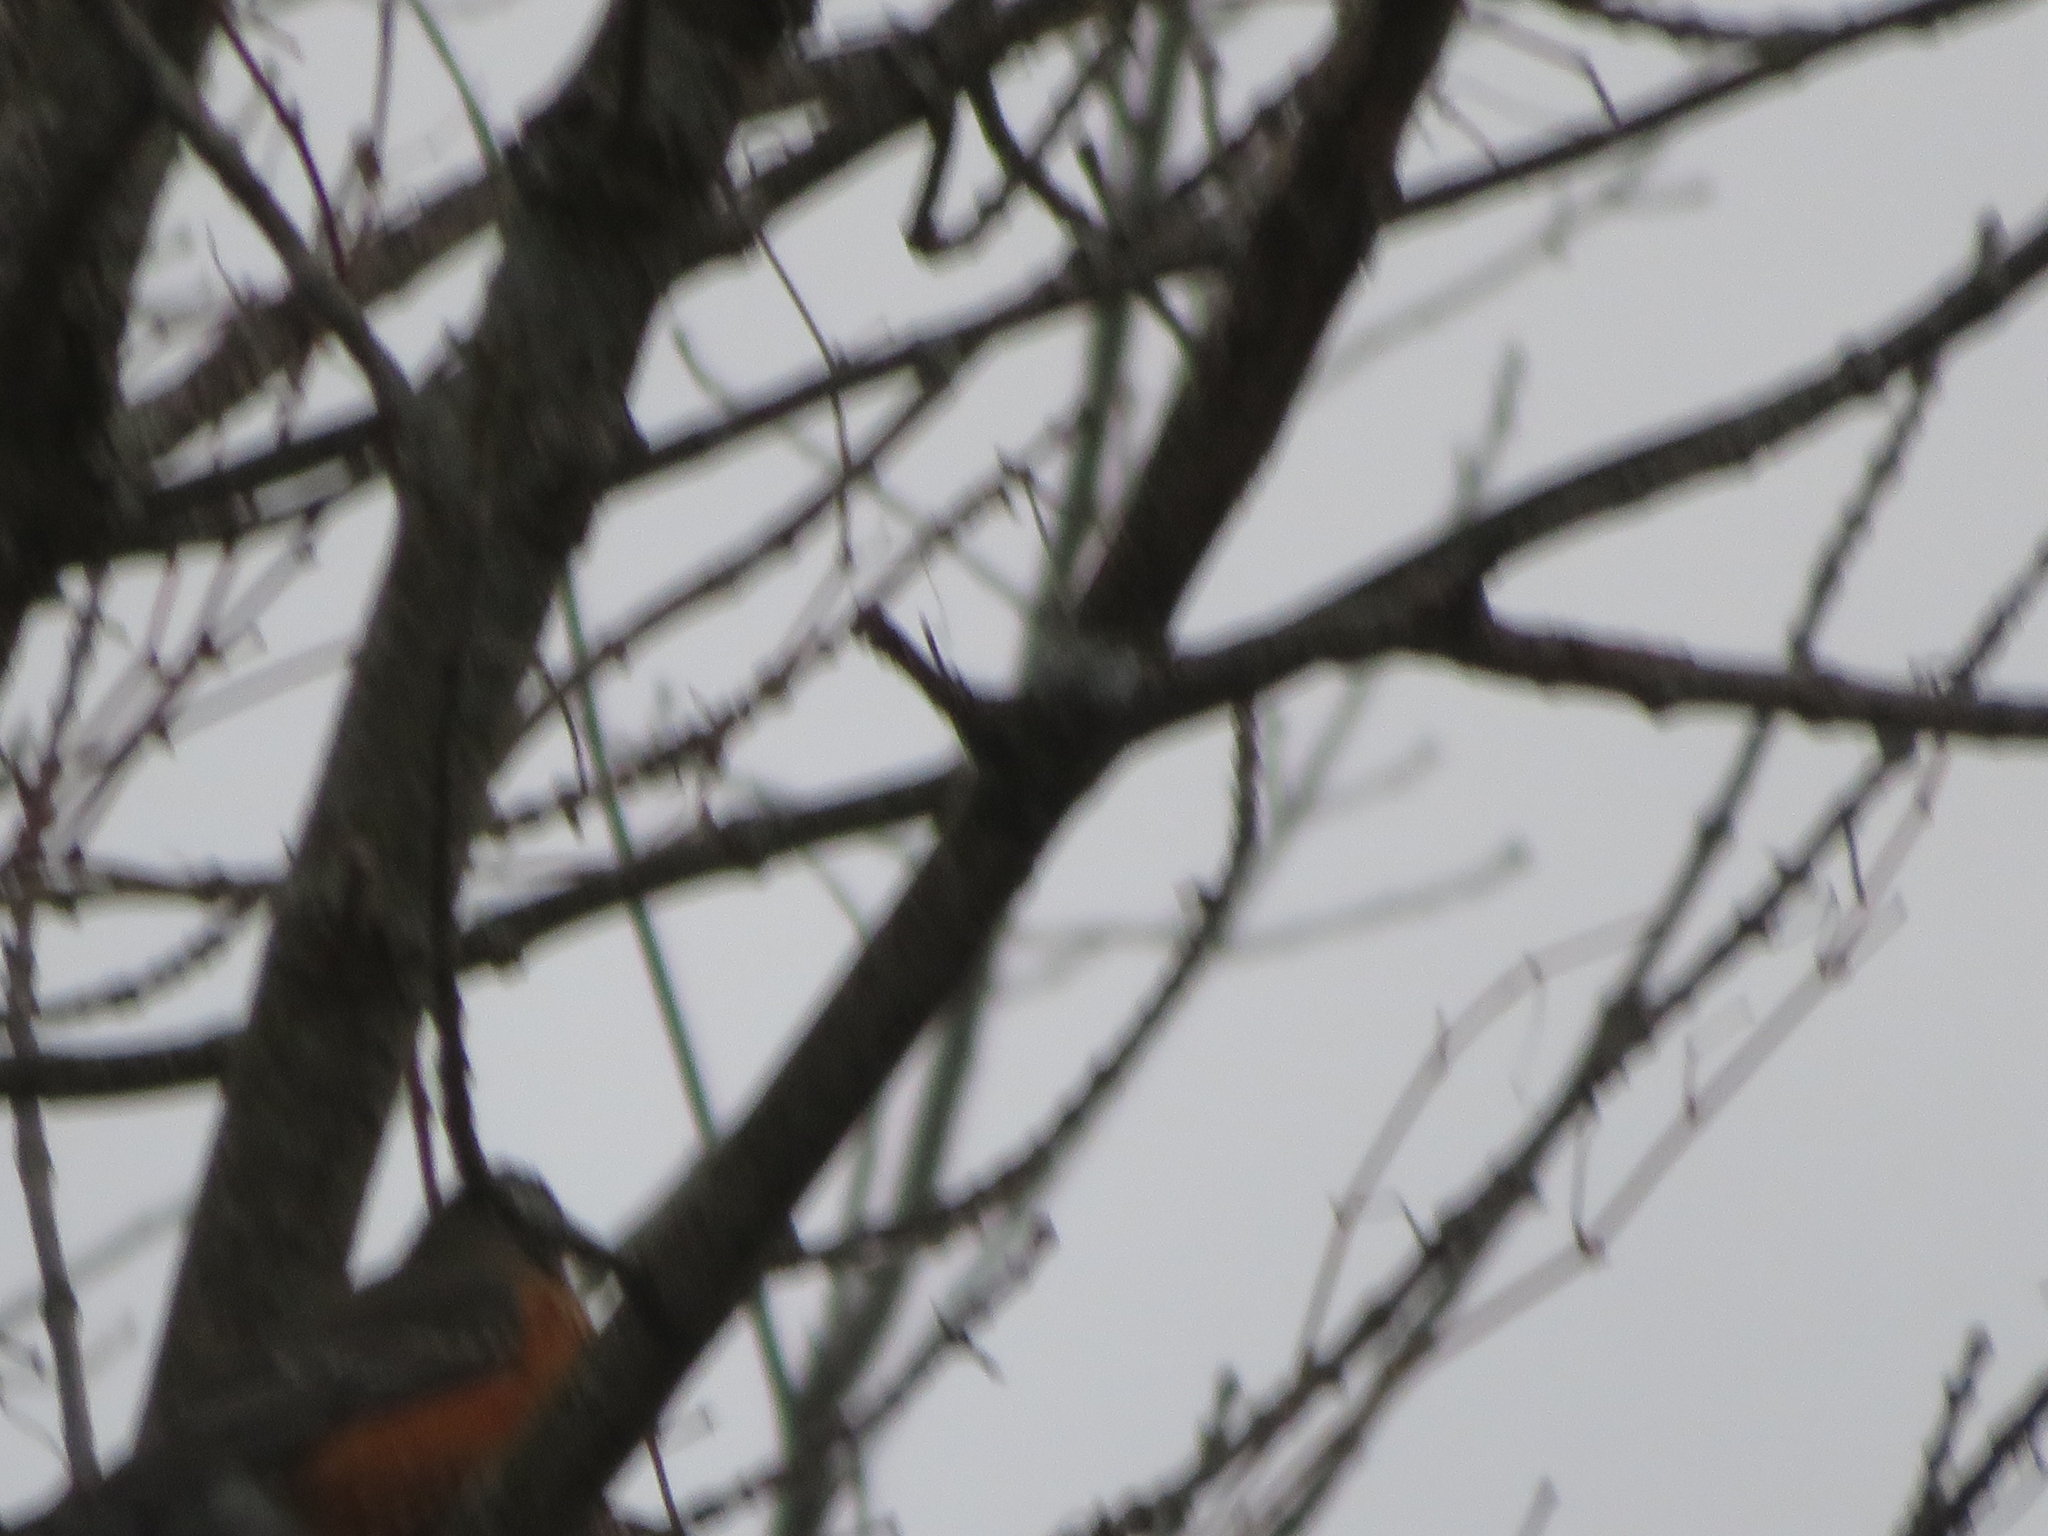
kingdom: Animalia
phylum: Chordata
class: Aves
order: Passeriformes
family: Turdidae
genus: Turdus
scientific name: Turdus migratorius
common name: American robin
